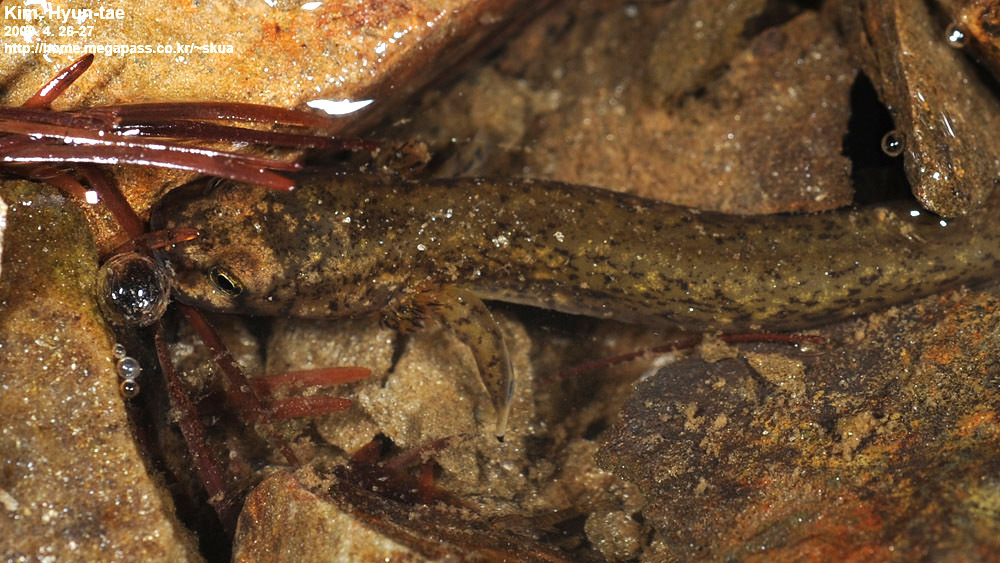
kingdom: Animalia
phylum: Chordata
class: Amphibia
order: Caudata
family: Hynobiidae
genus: Onychodactylus
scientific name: Onychodactylus koreanus
